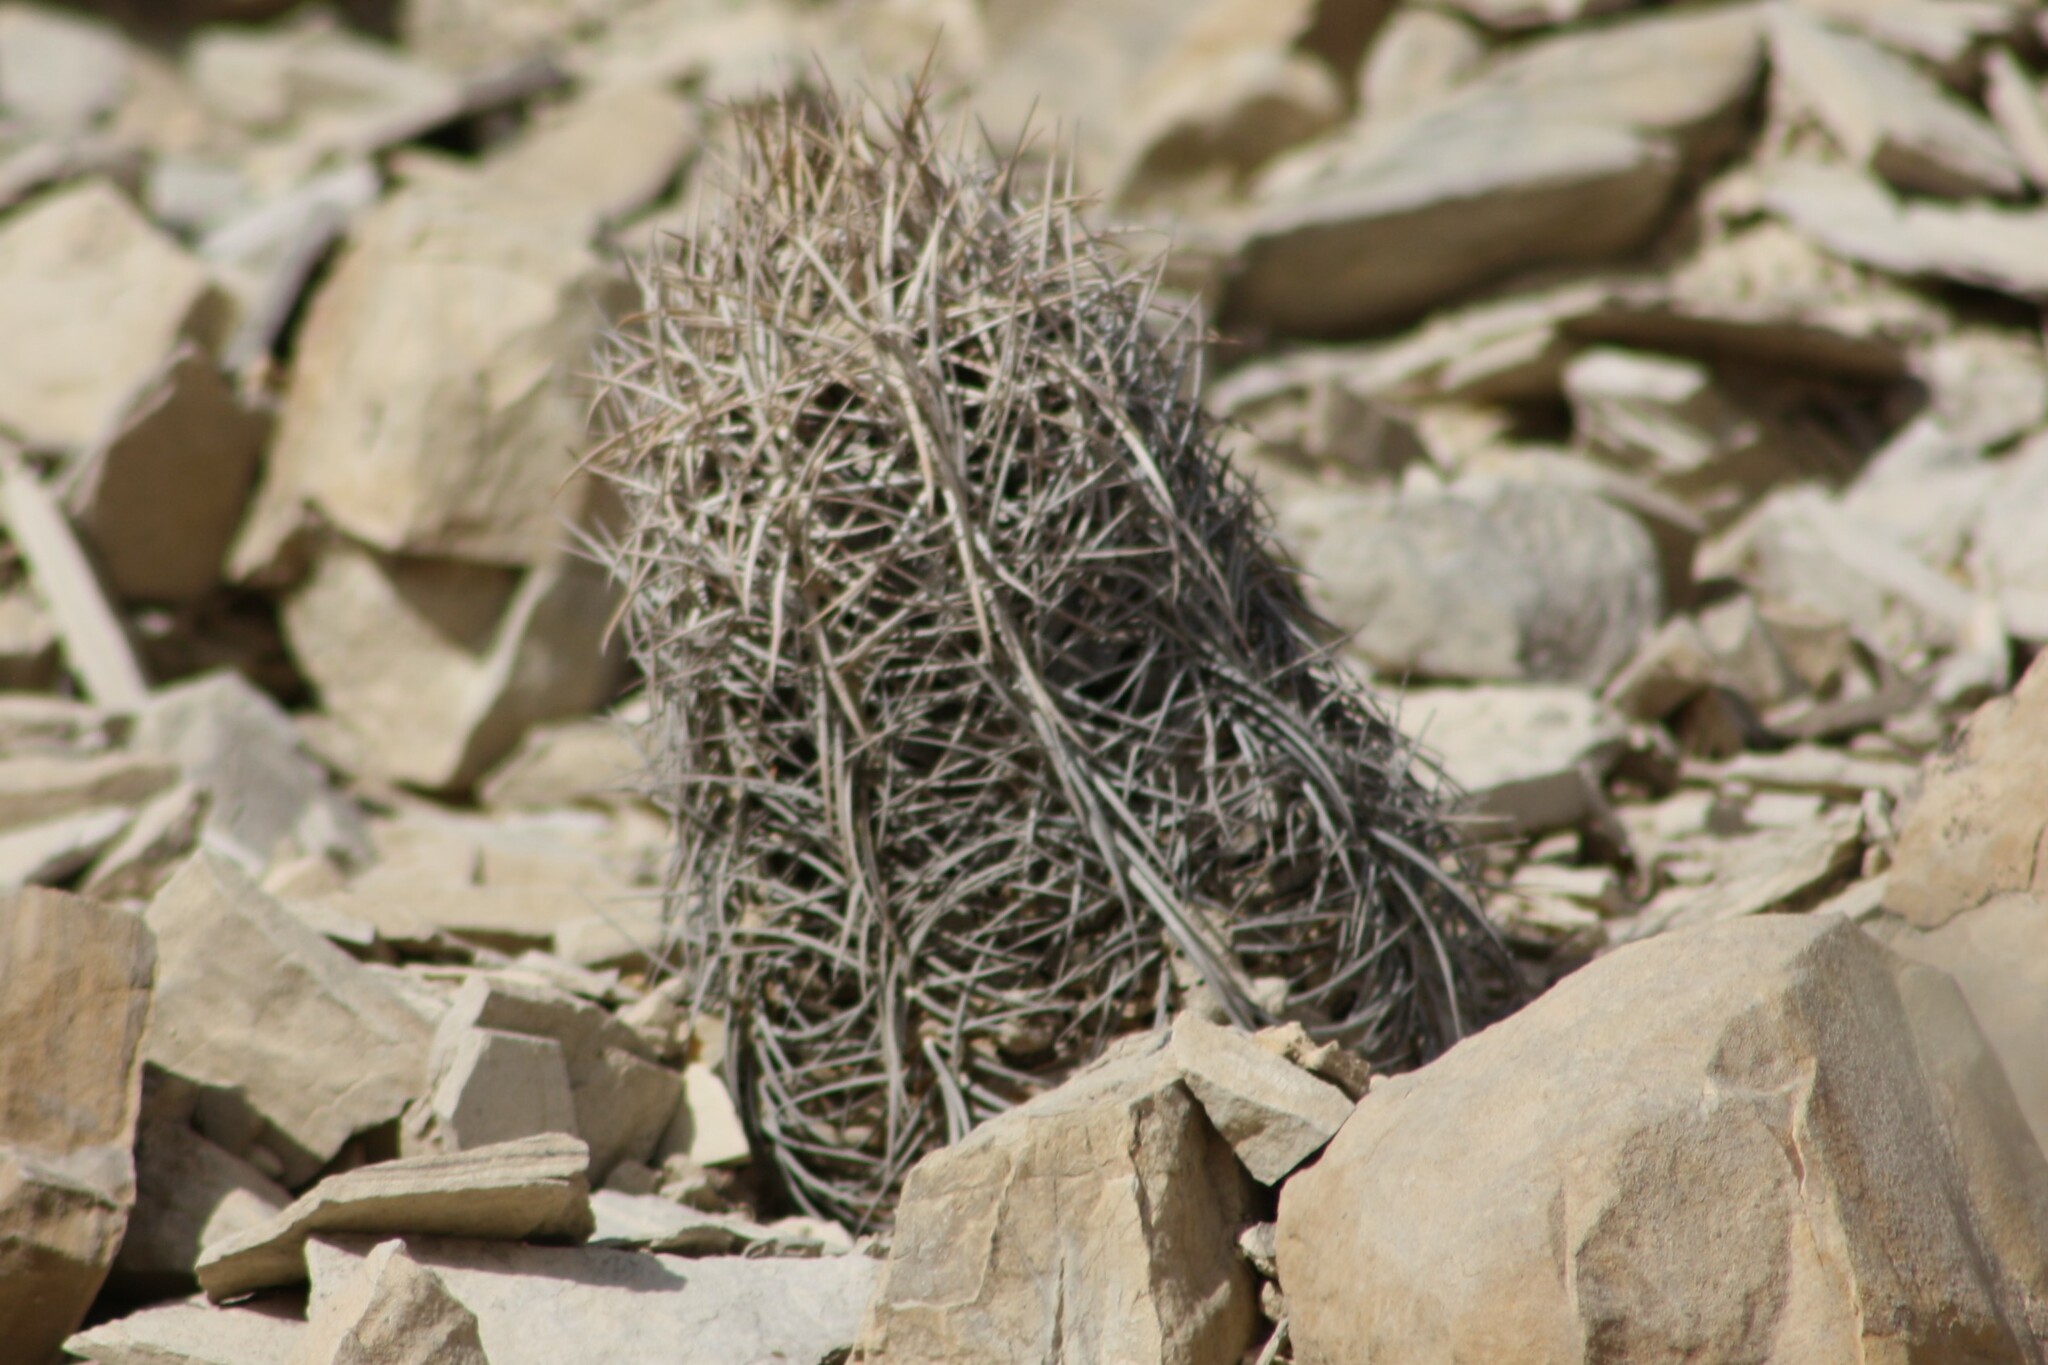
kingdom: Plantae
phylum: Tracheophyta
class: Magnoliopsida
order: Caryophyllales
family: Cactaceae
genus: Thelocactus
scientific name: Thelocactus bicolor
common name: Glory of texas
